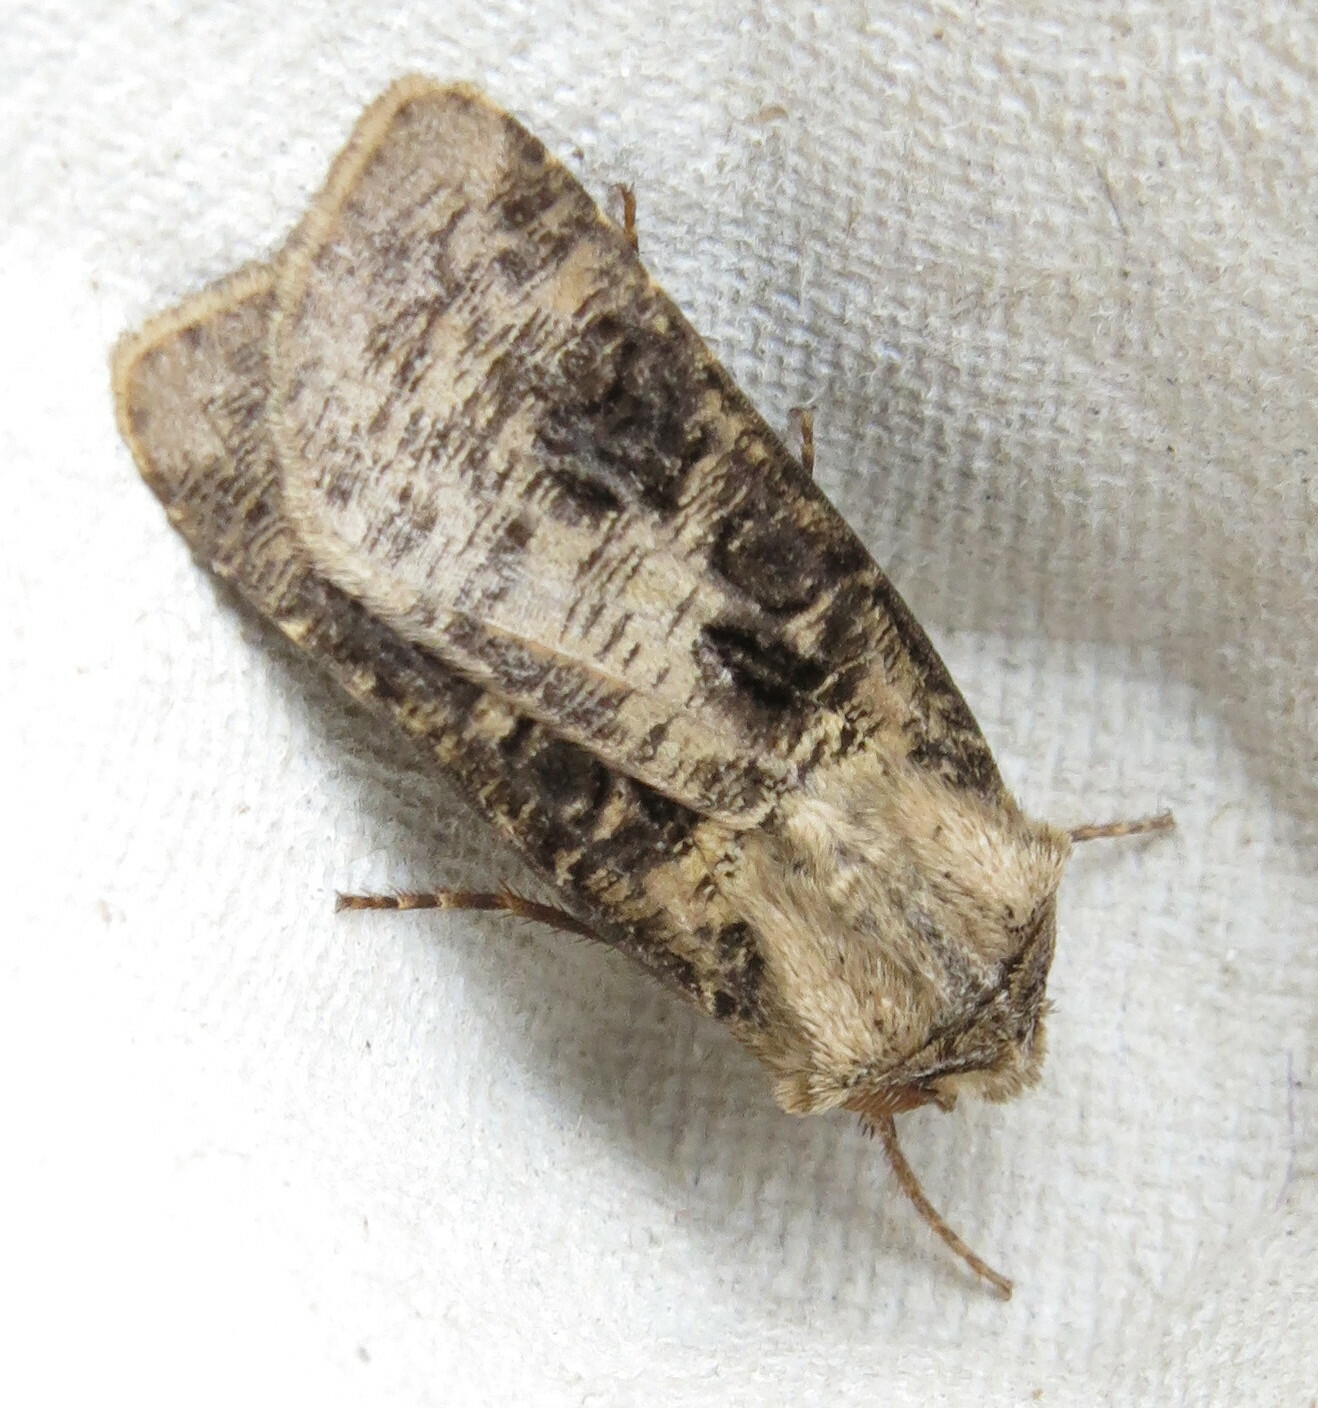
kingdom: Animalia
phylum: Arthropoda
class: Insecta
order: Lepidoptera
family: Noctuidae
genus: Agrotis
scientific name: Agrotis clavis
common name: Heart and club
